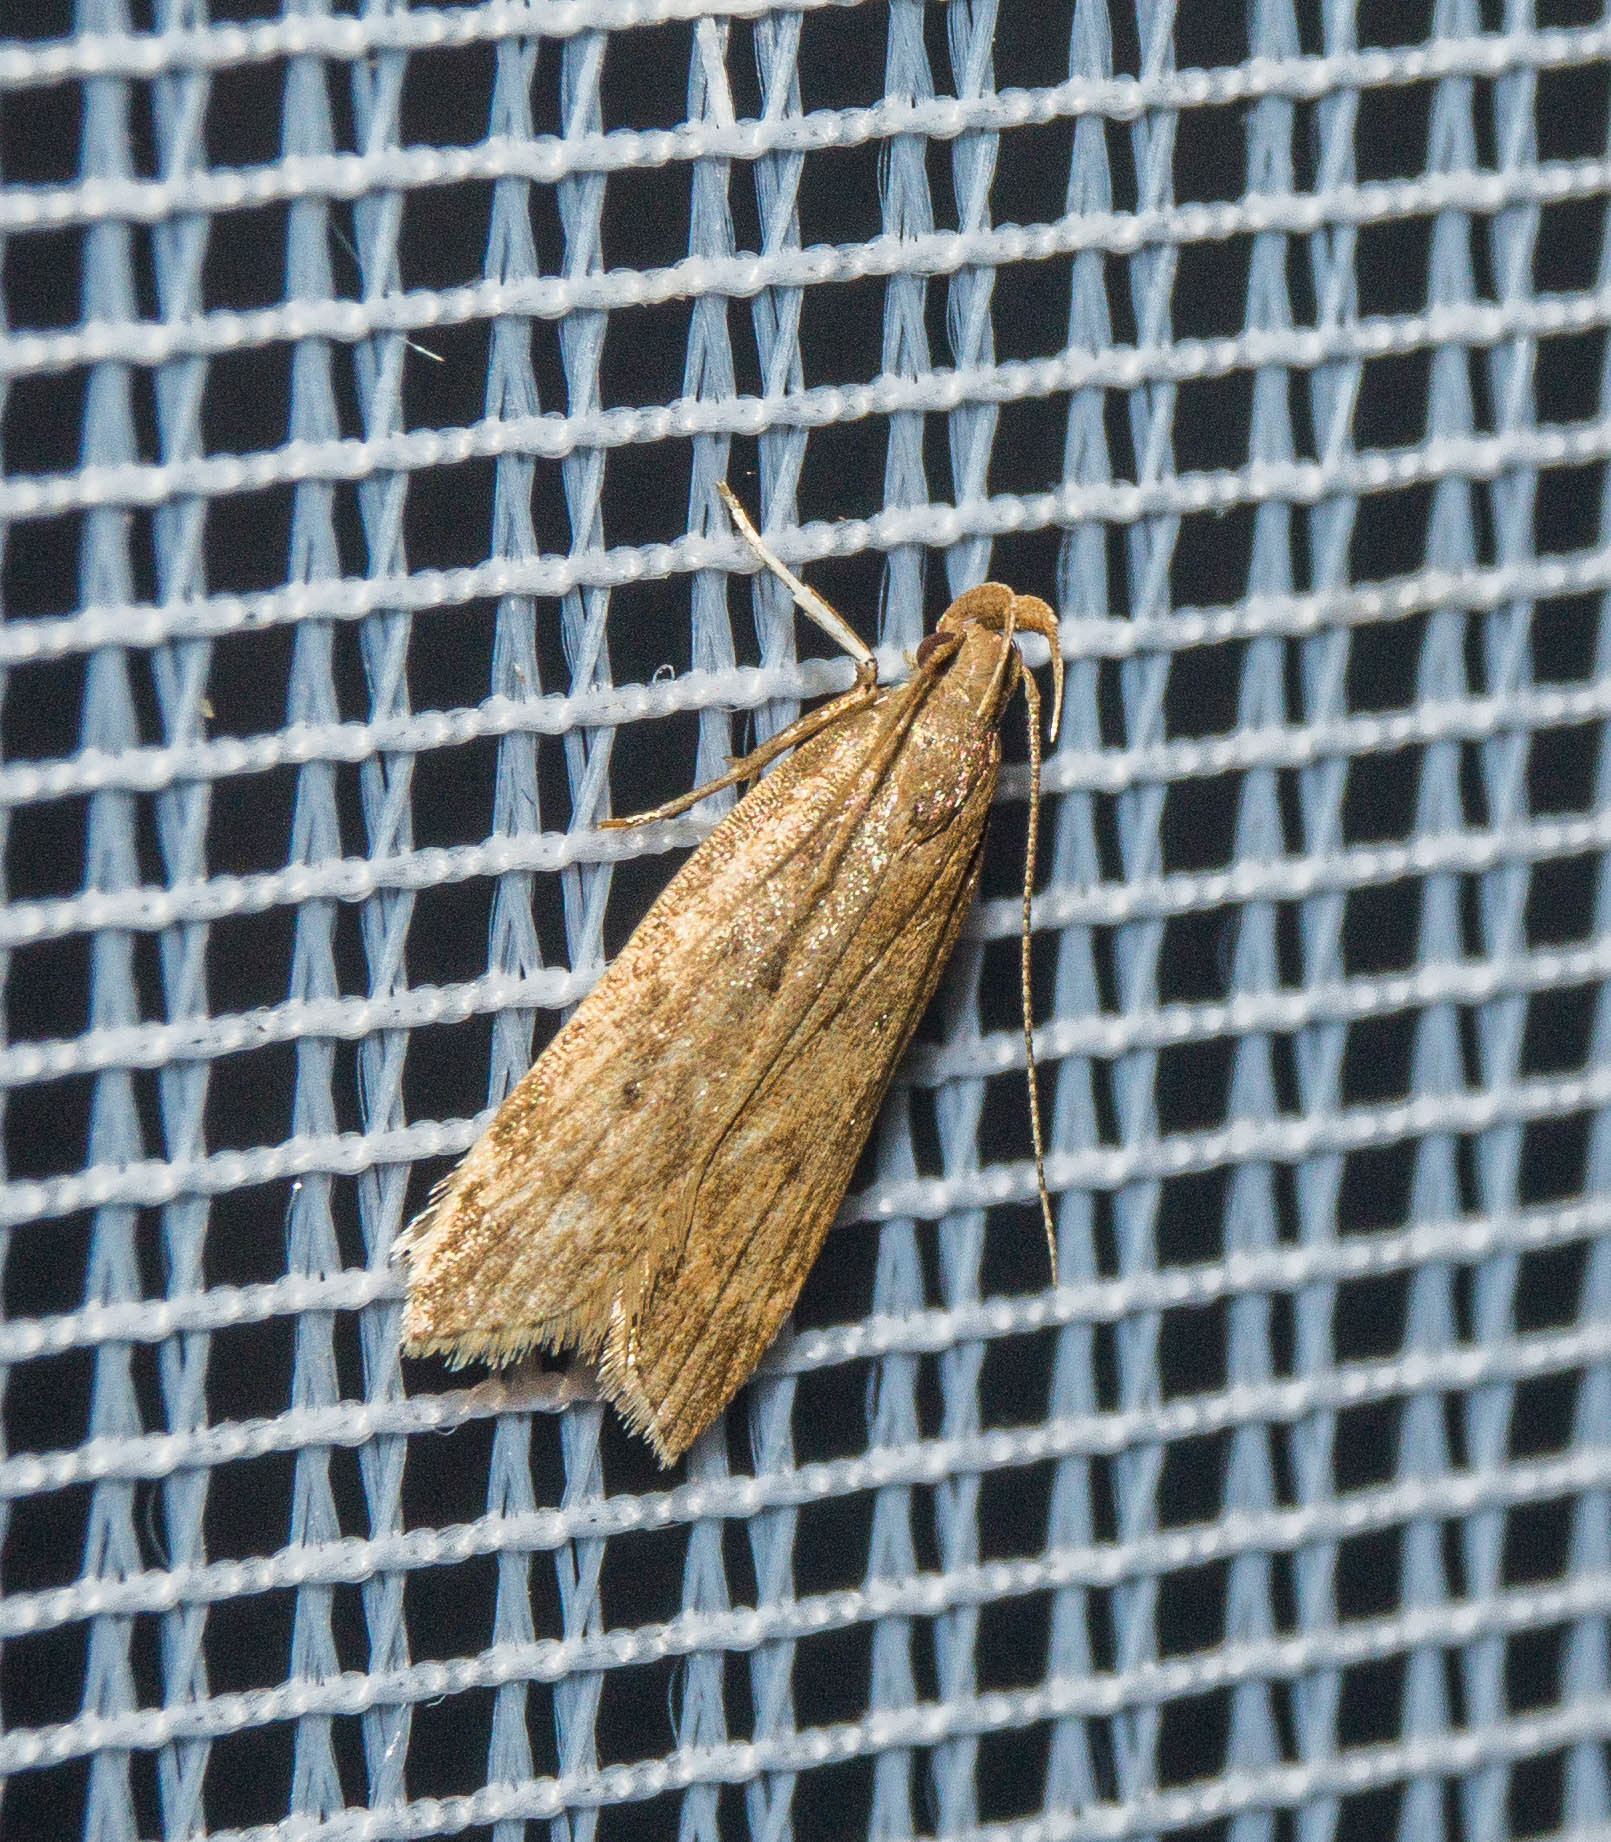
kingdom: Animalia
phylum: Arthropoda
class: Insecta
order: Lepidoptera
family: Gelechiidae
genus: Helcystogramma
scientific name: Helcystogramma lutatella
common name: Clay crest
